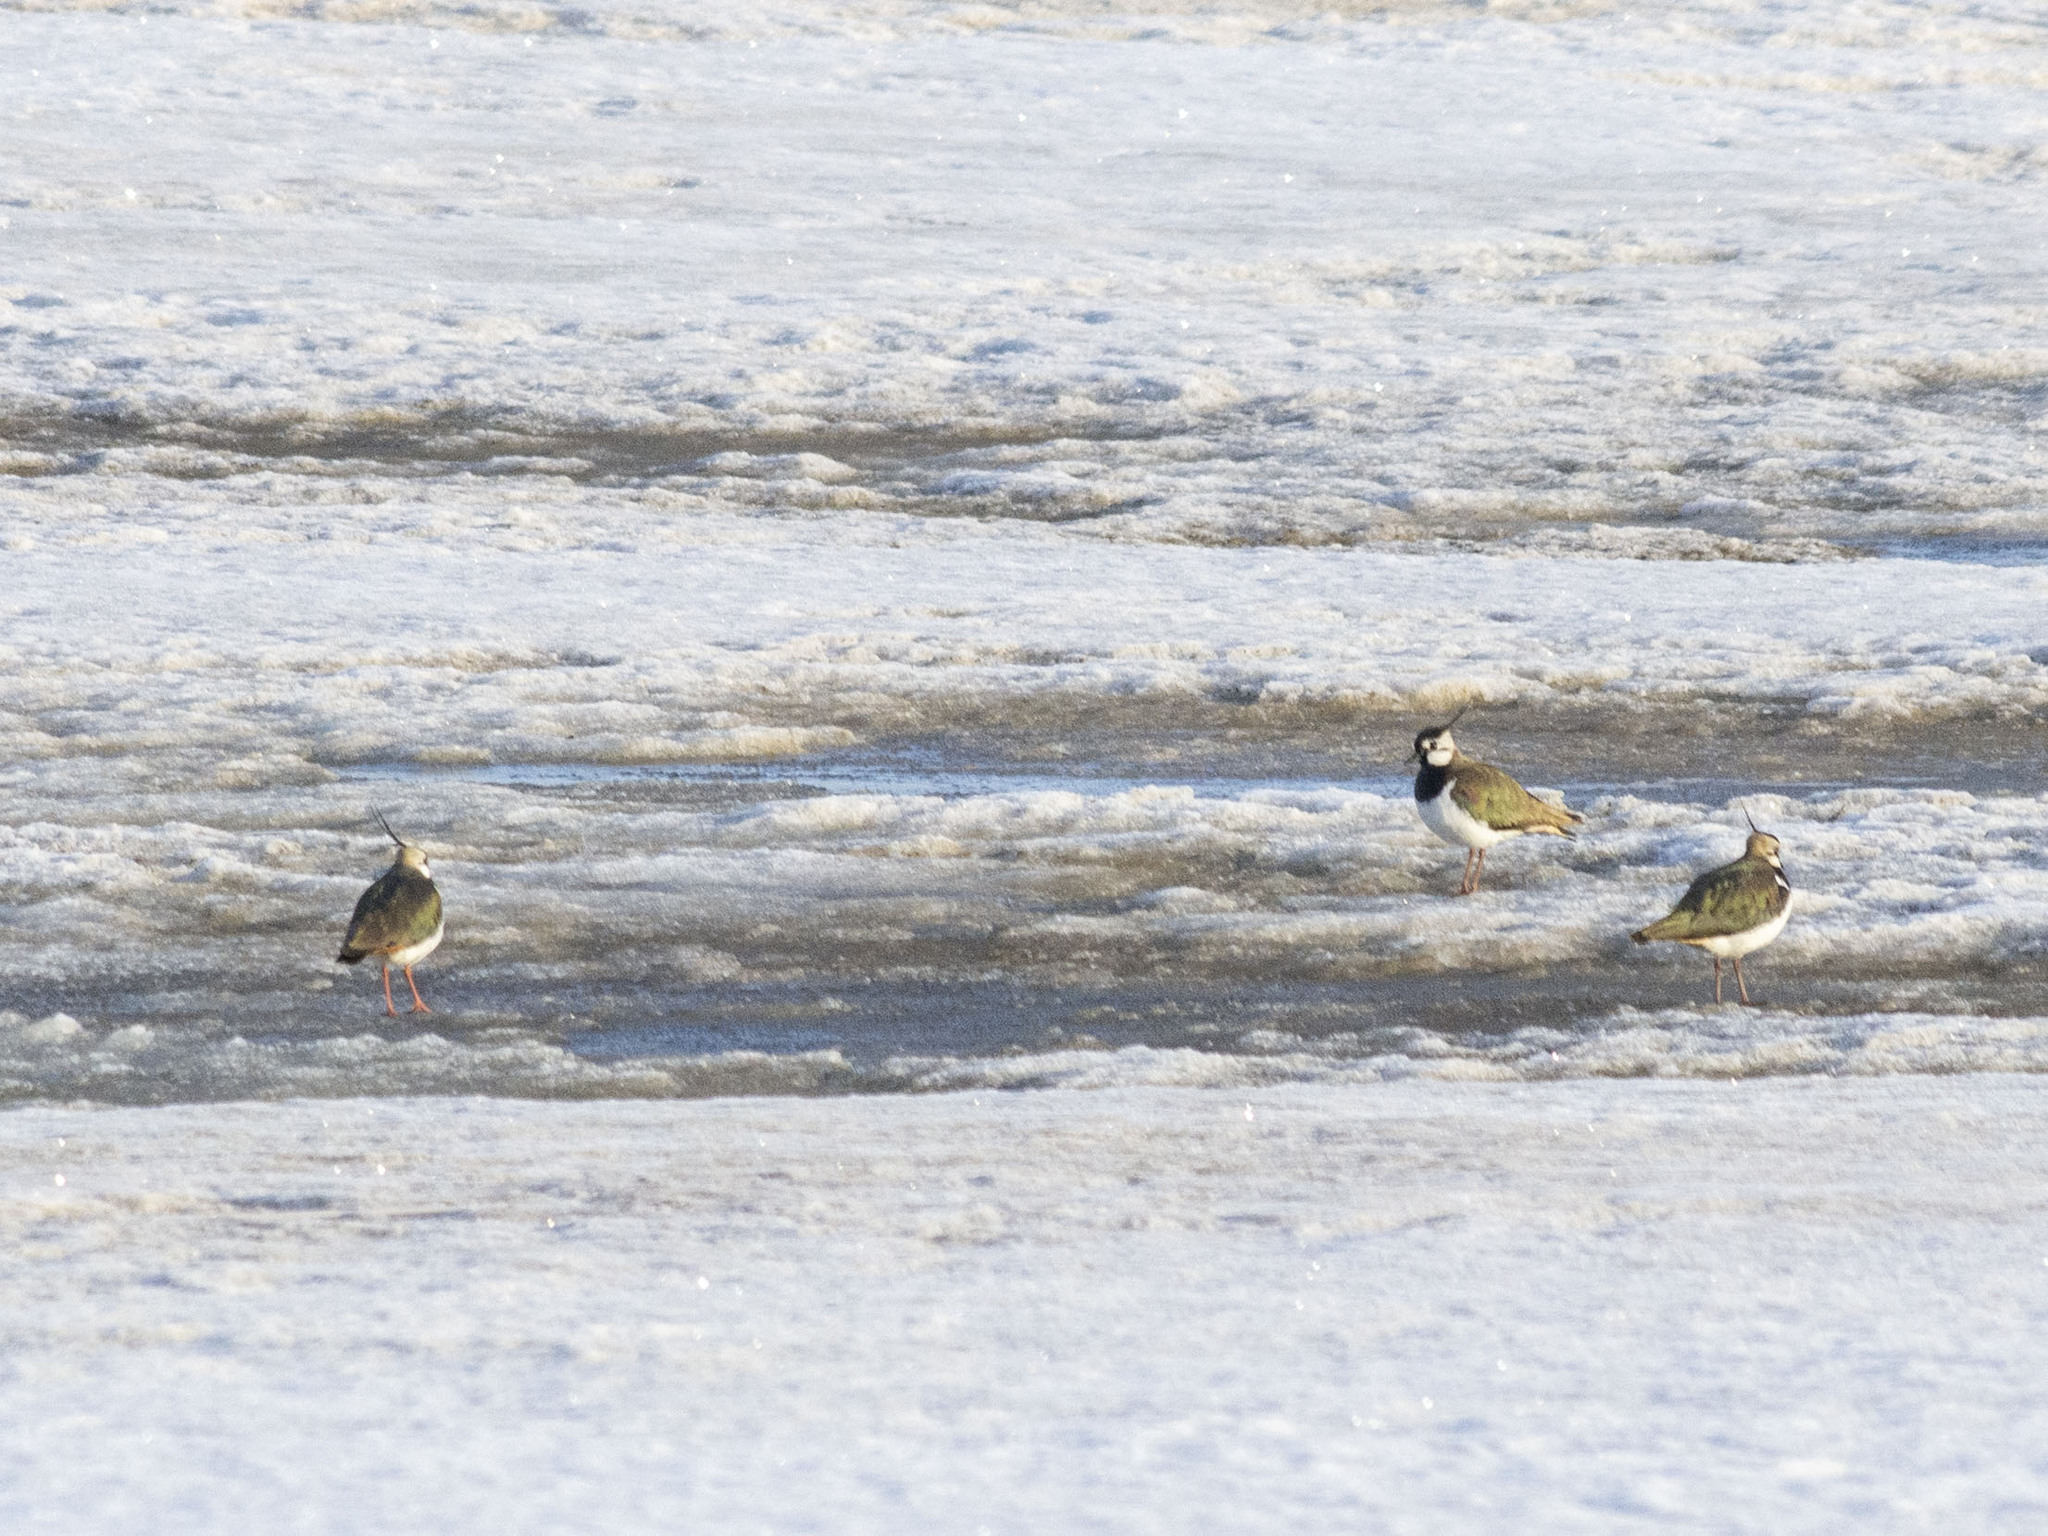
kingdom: Animalia
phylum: Chordata
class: Aves
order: Charadriiformes
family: Charadriidae
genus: Vanellus
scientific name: Vanellus vanellus
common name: Northern lapwing
